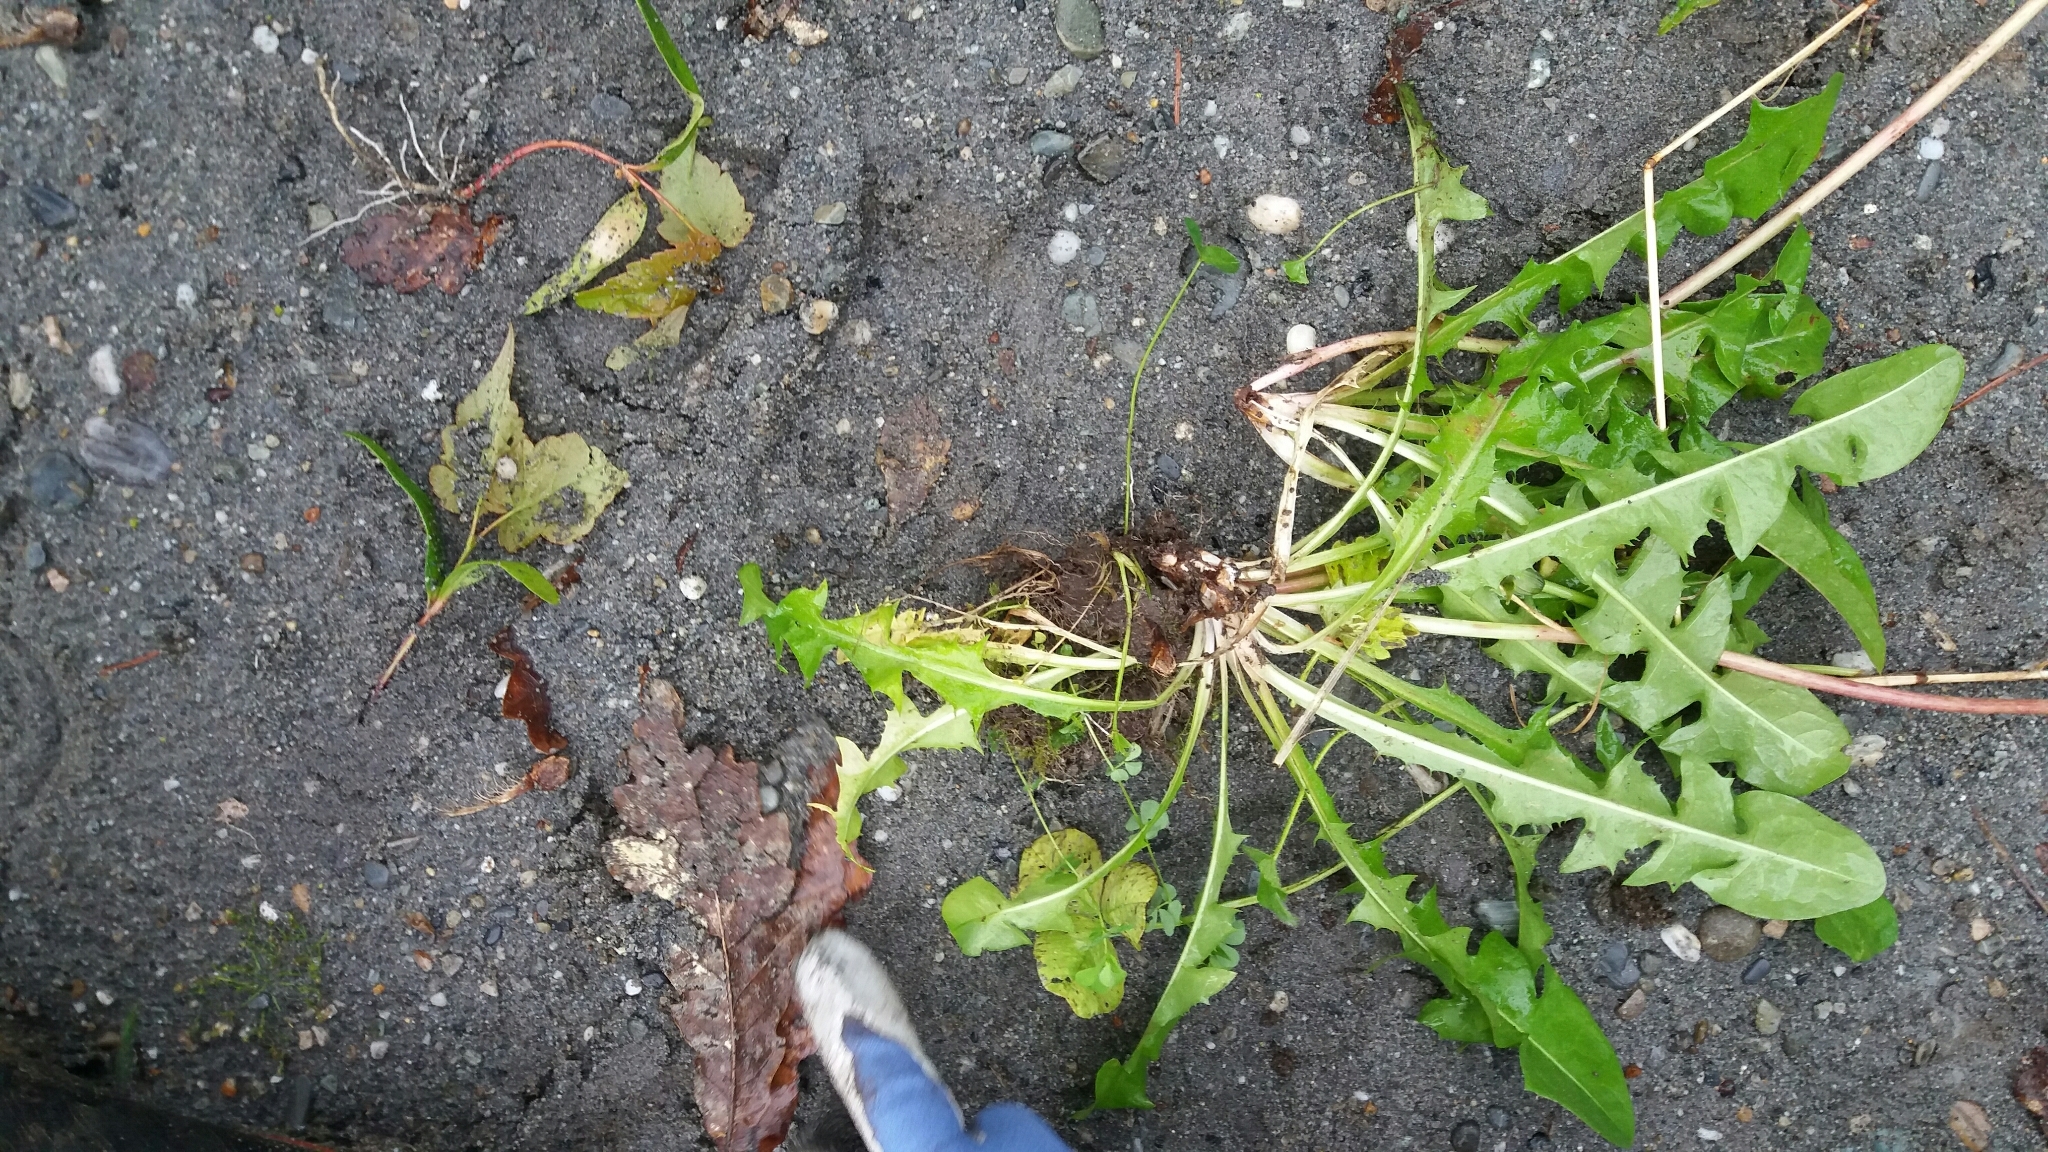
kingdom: Plantae
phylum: Tracheophyta
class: Magnoliopsida
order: Asterales
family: Asteraceae
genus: Taraxacum
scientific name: Taraxacum officinale
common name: Common dandelion
